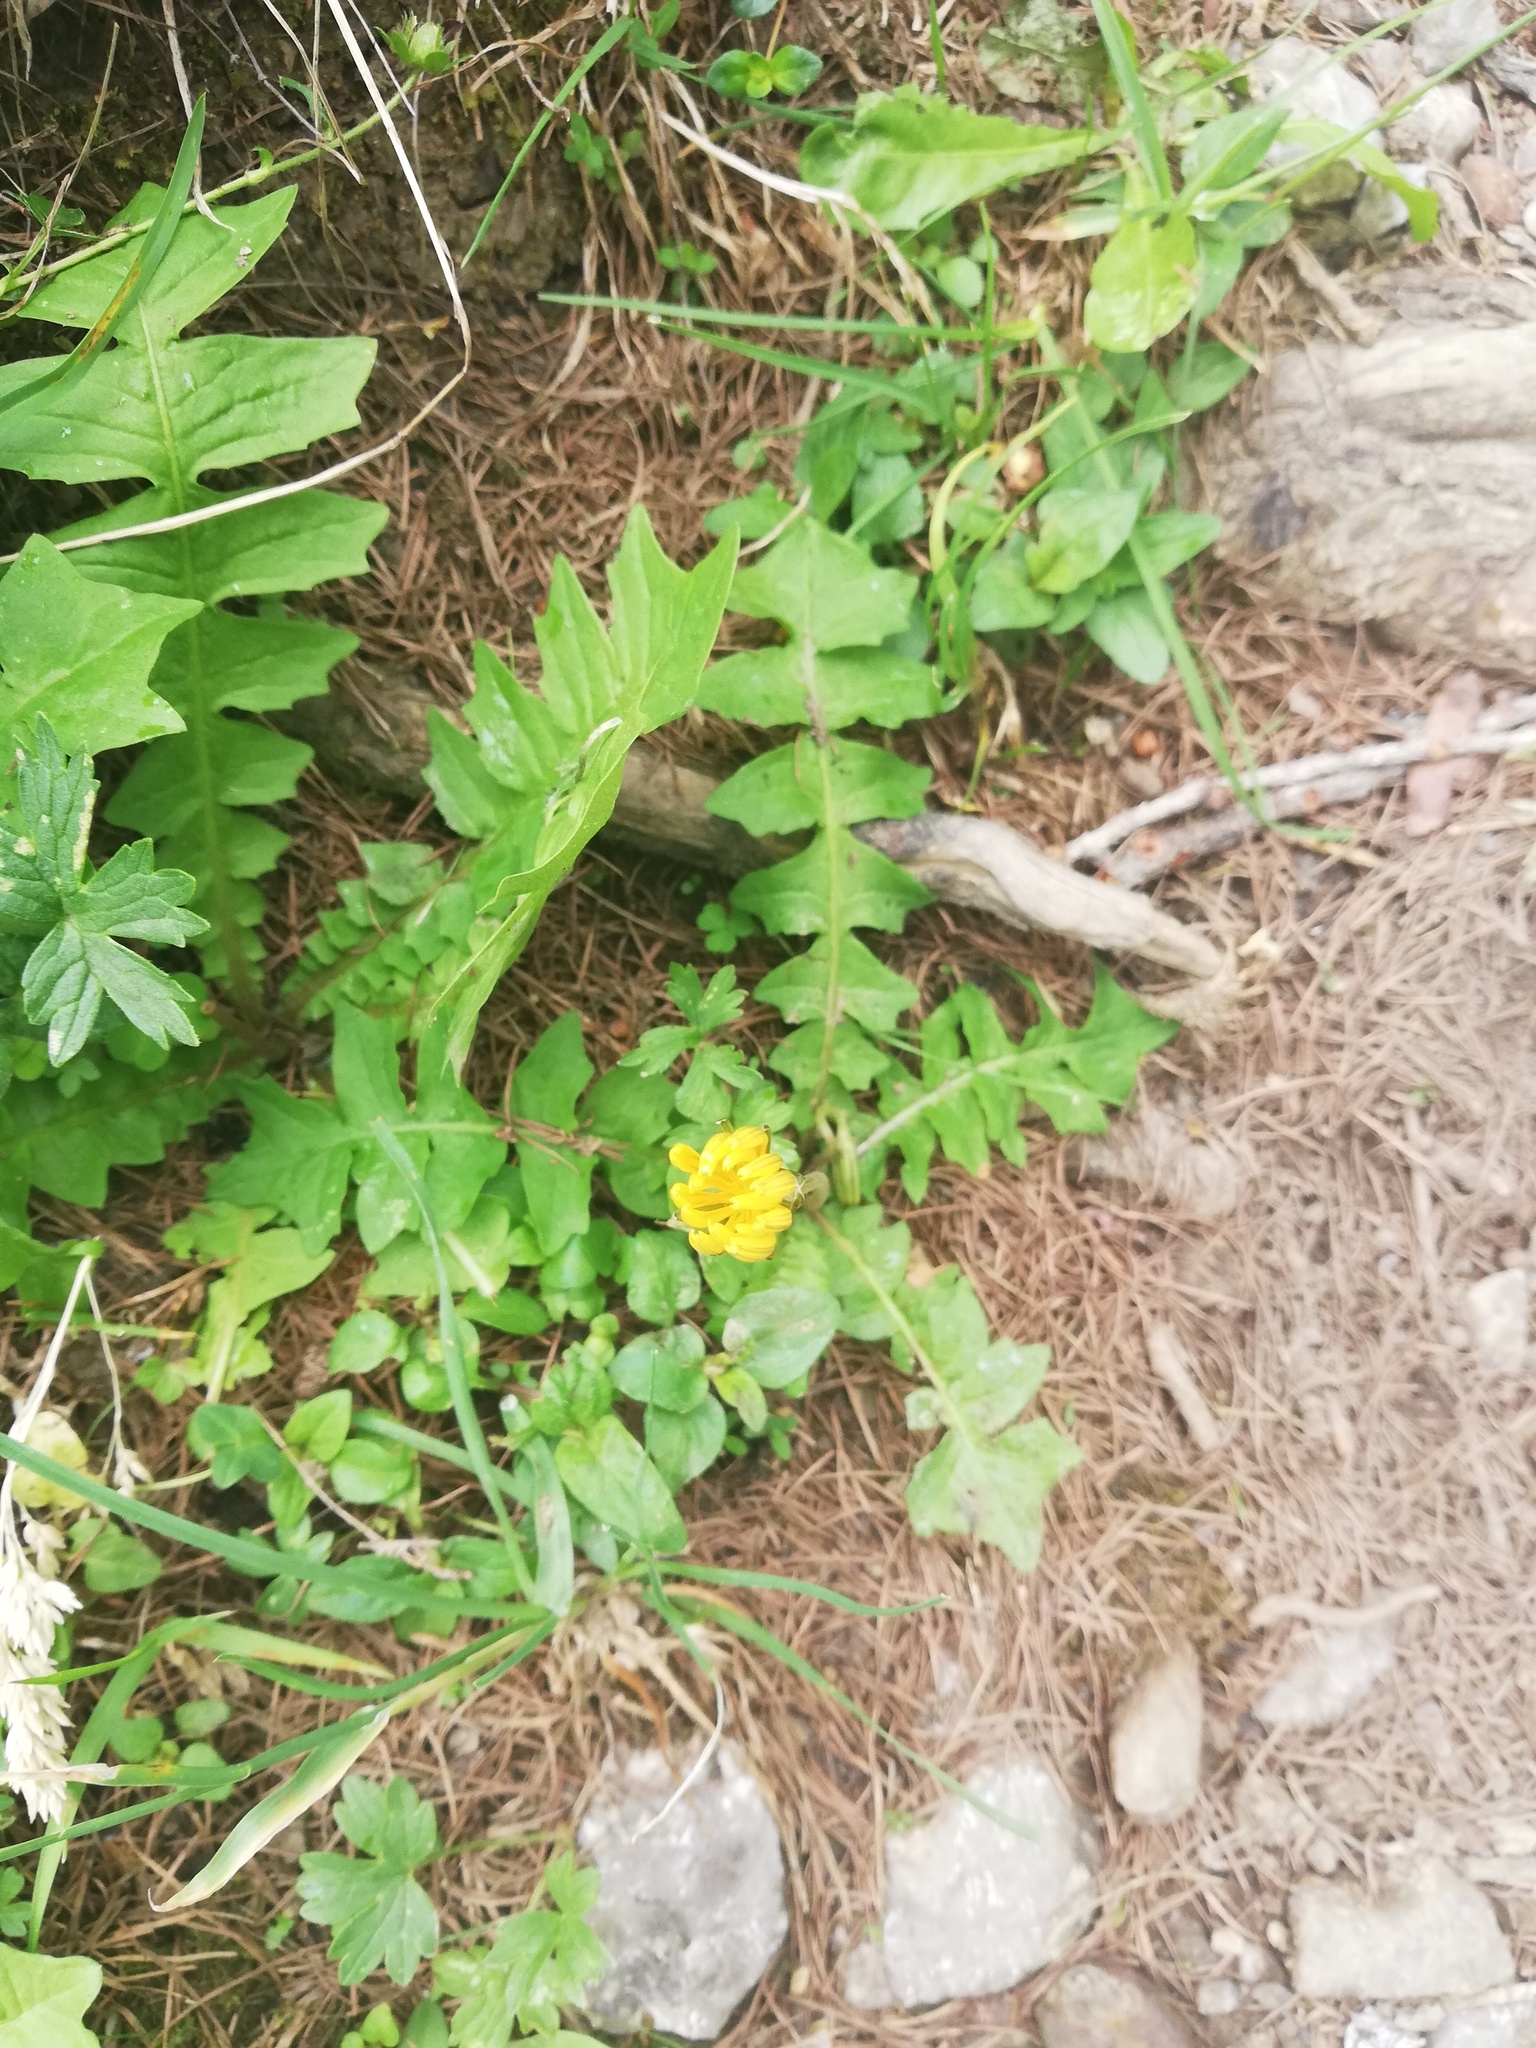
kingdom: Plantae
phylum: Tracheophyta
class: Magnoliopsida
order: Asterales
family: Asteraceae
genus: Aposeris
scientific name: Aposeris foetida
